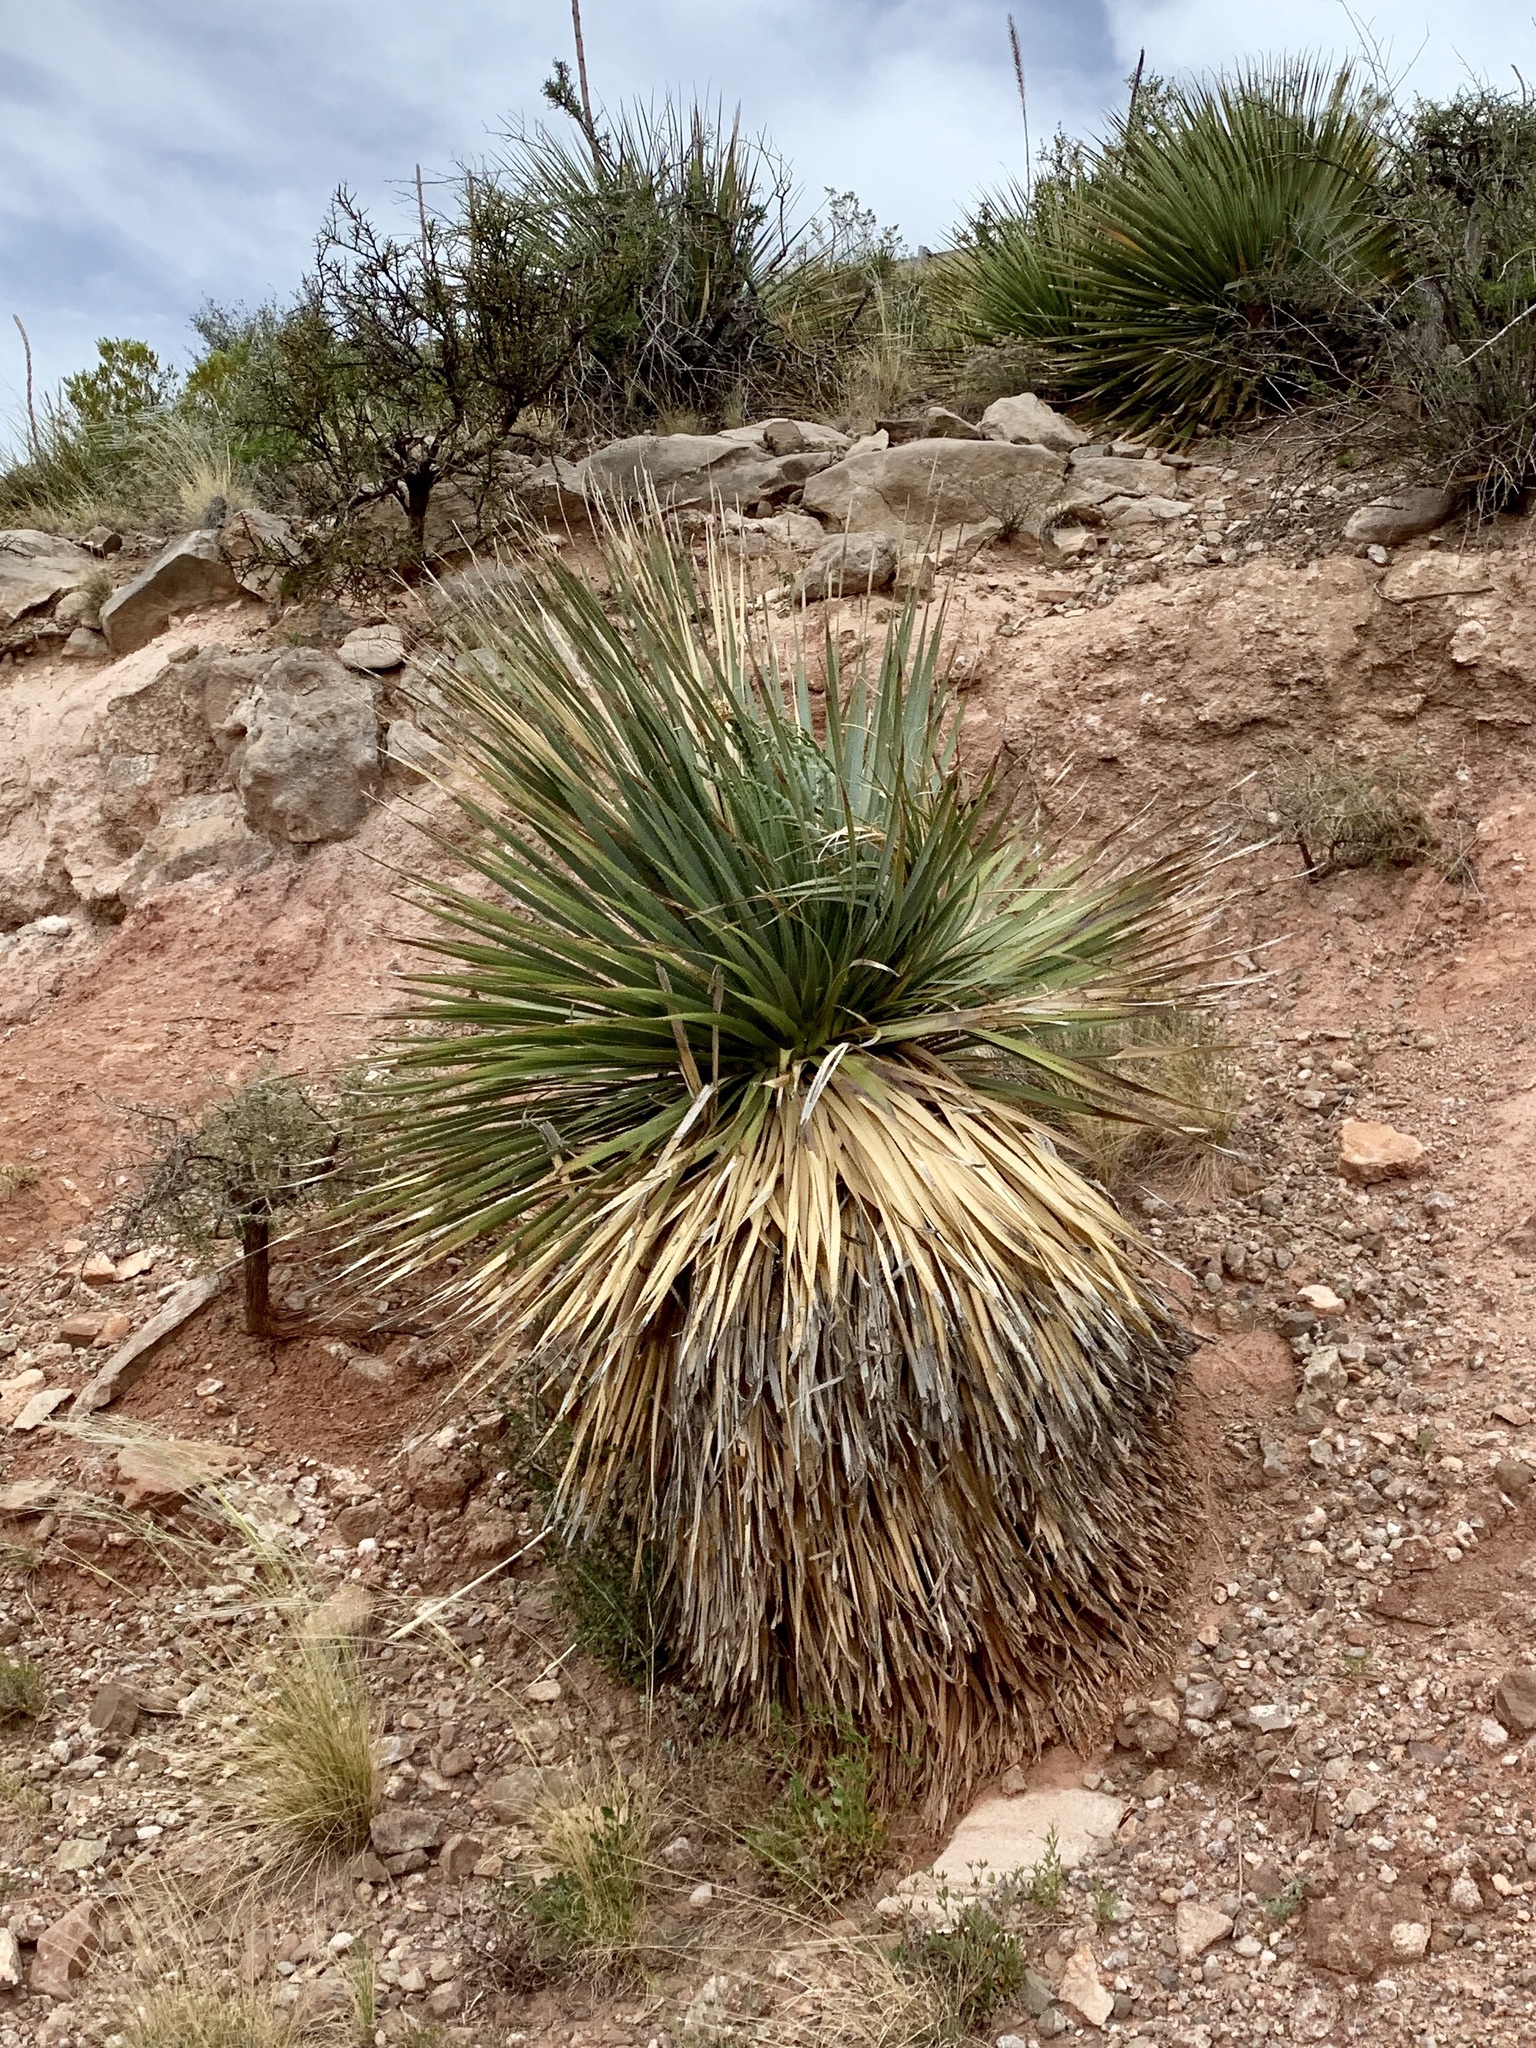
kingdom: Plantae
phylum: Tracheophyta
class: Liliopsida
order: Asparagales
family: Asparagaceae
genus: Dasylirion
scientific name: Dasylirion wheeleri
